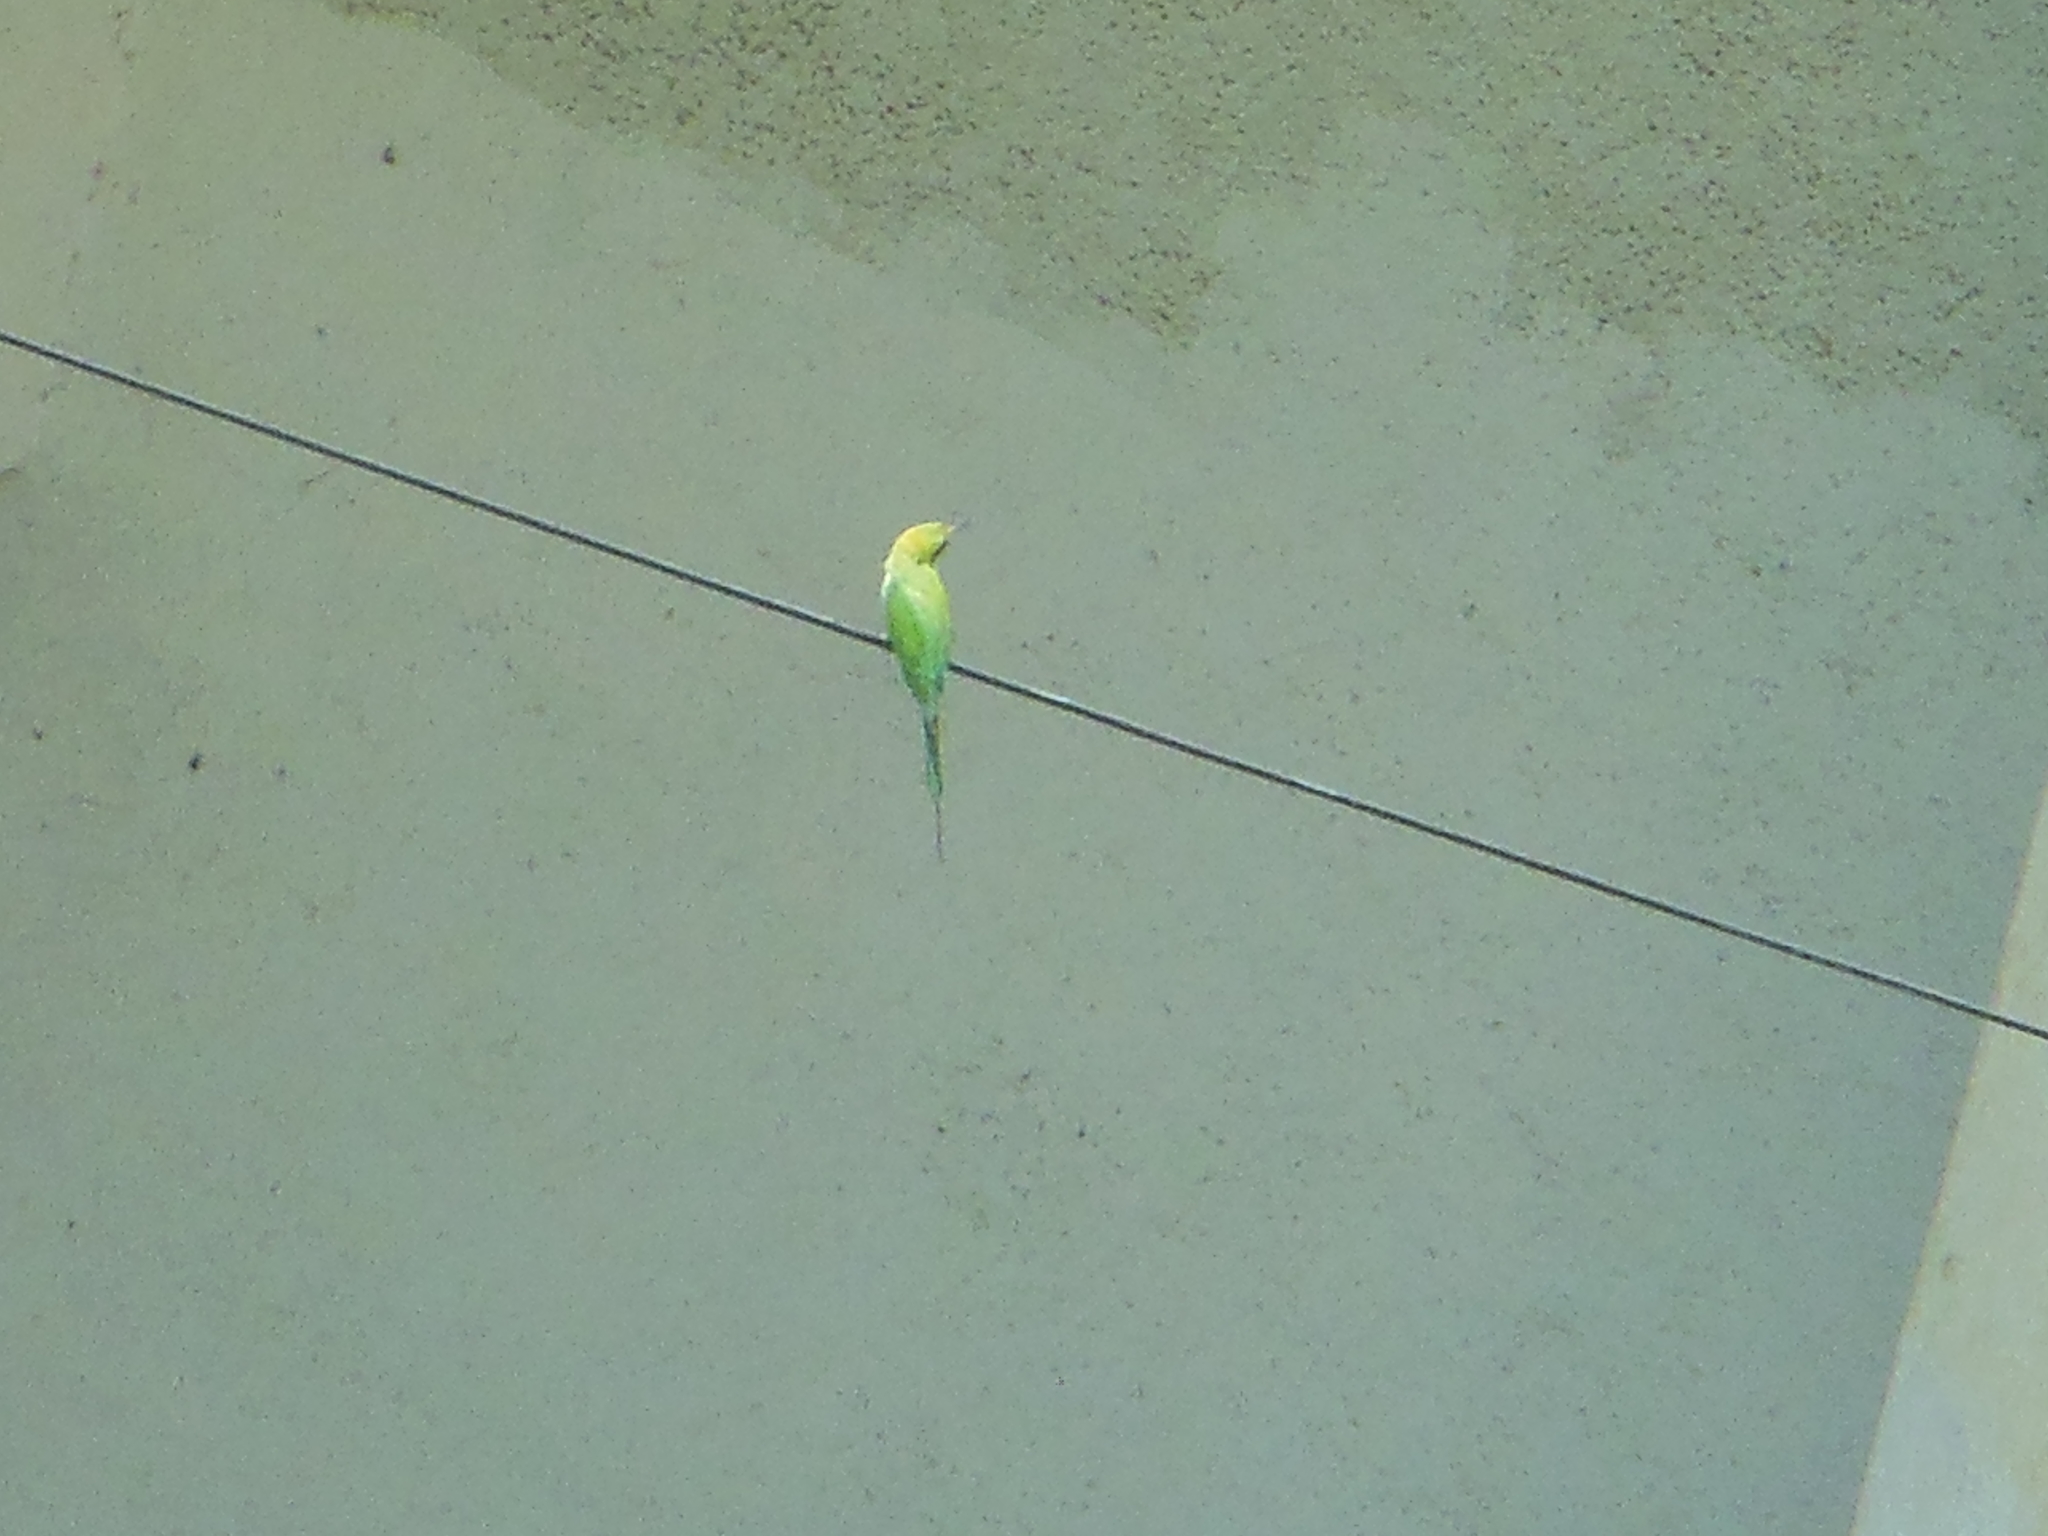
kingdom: Animalia
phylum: Chordata
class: Aves
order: Coraciiformes
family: Meropidae
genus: Merops
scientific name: Merops orientalis
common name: Green bee-eater
